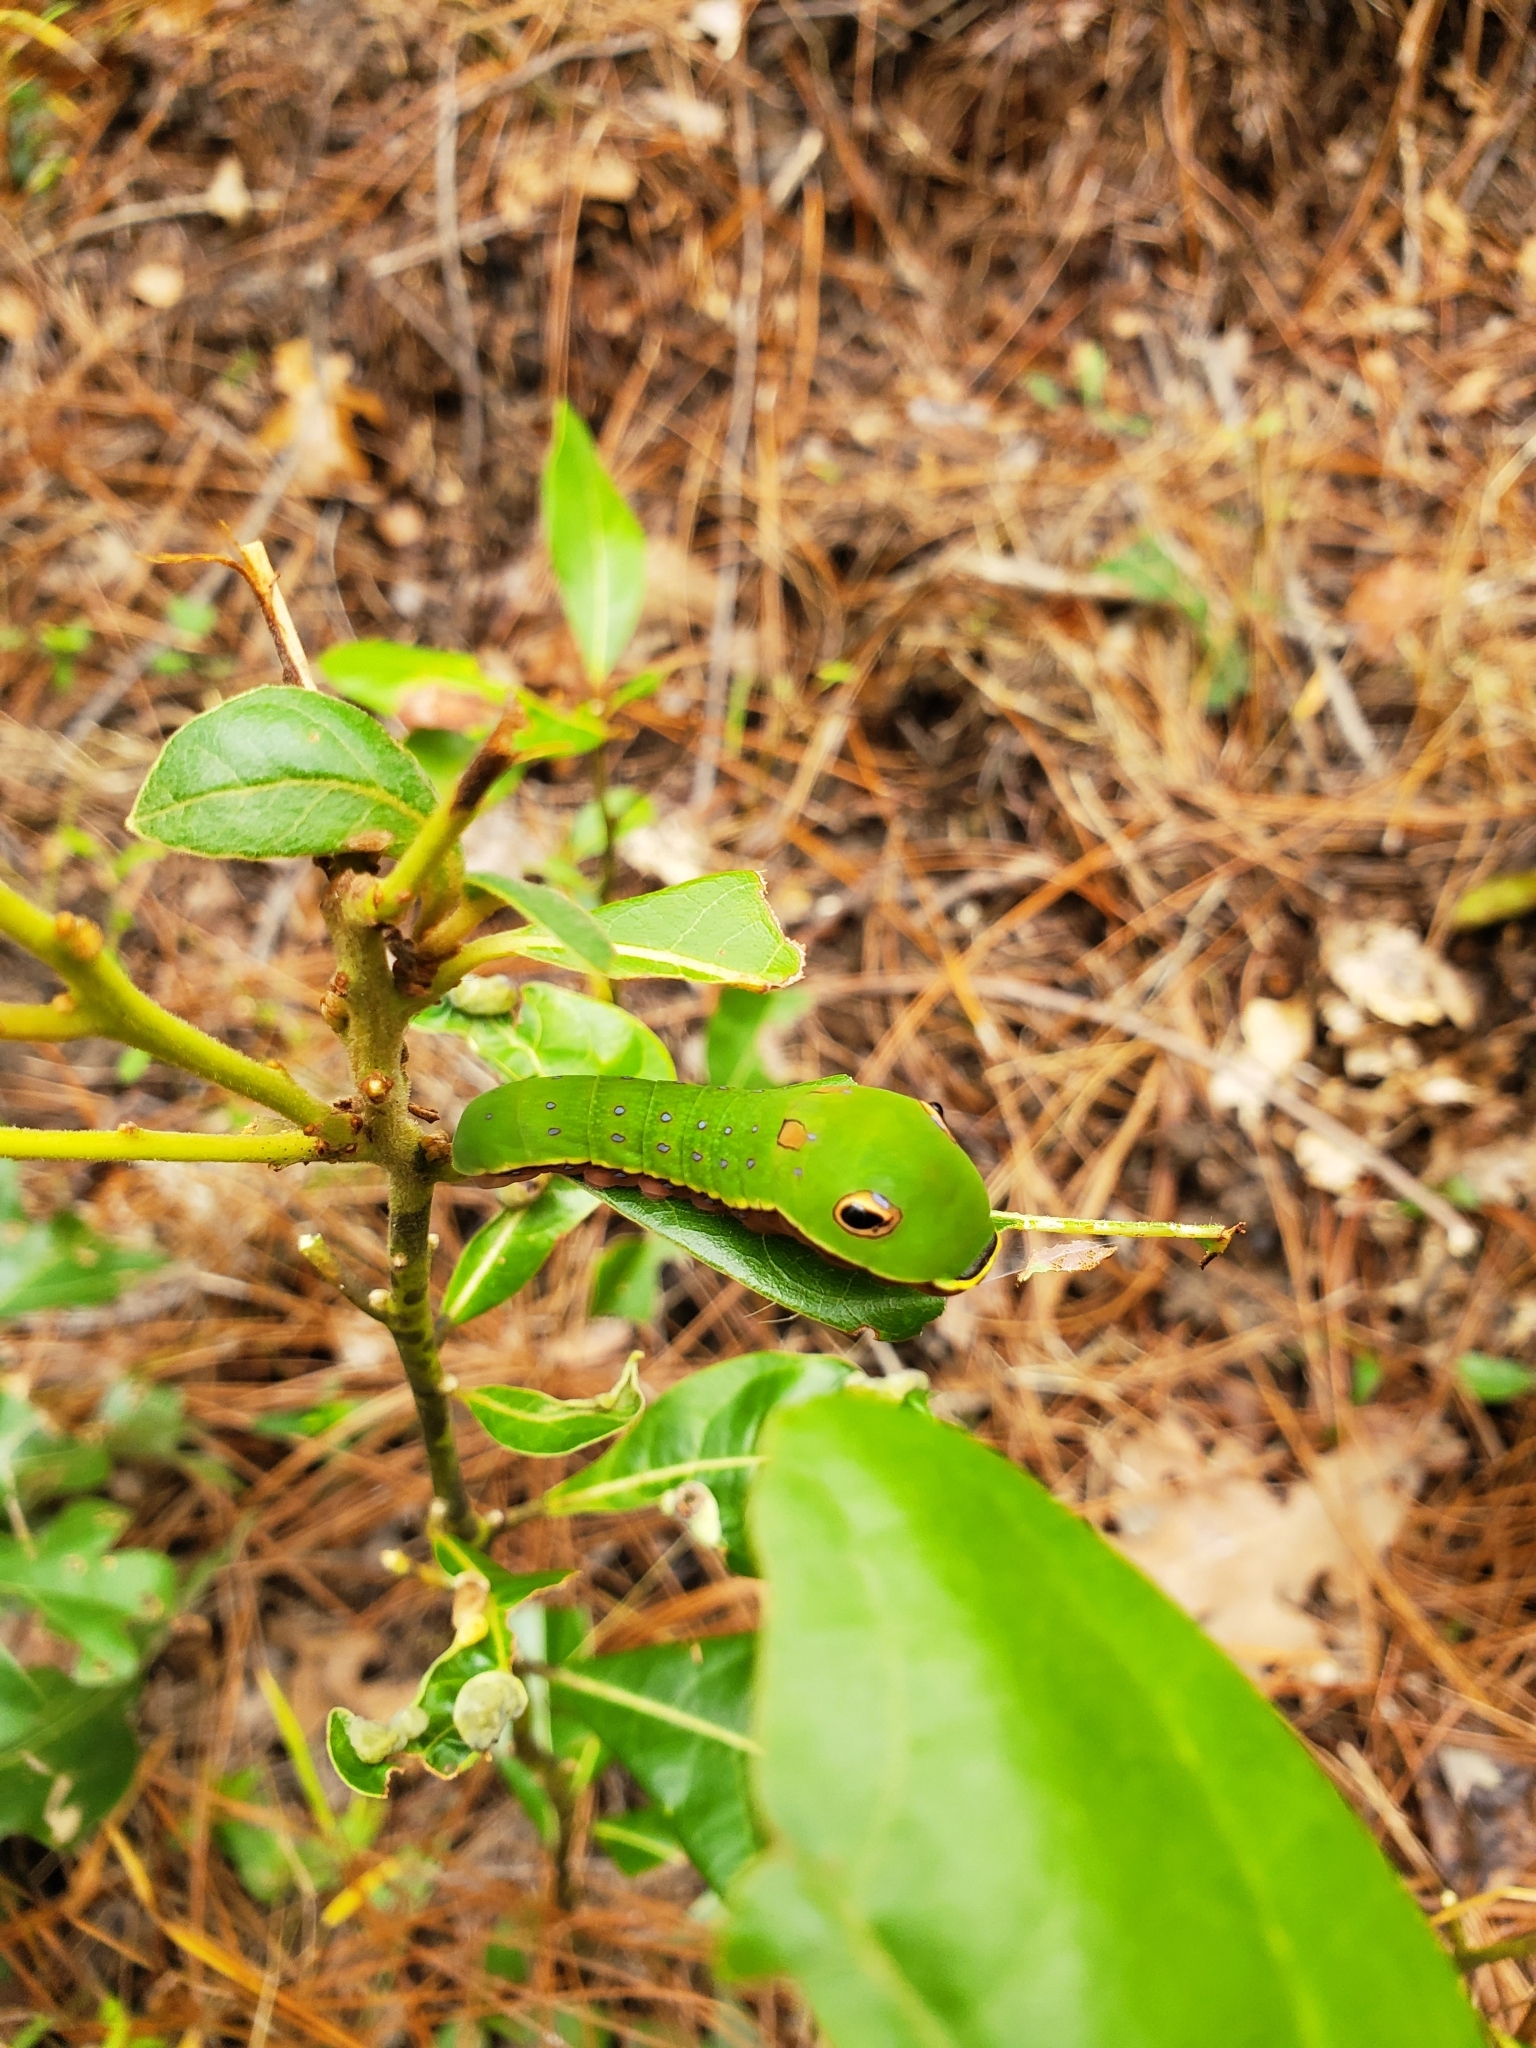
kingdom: Animalia
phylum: Arthropoda
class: Insecta
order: Lepidoptera
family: Papilionidae
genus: Papilio
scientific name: Papilio palamedes
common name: Palamedes swallowtail
